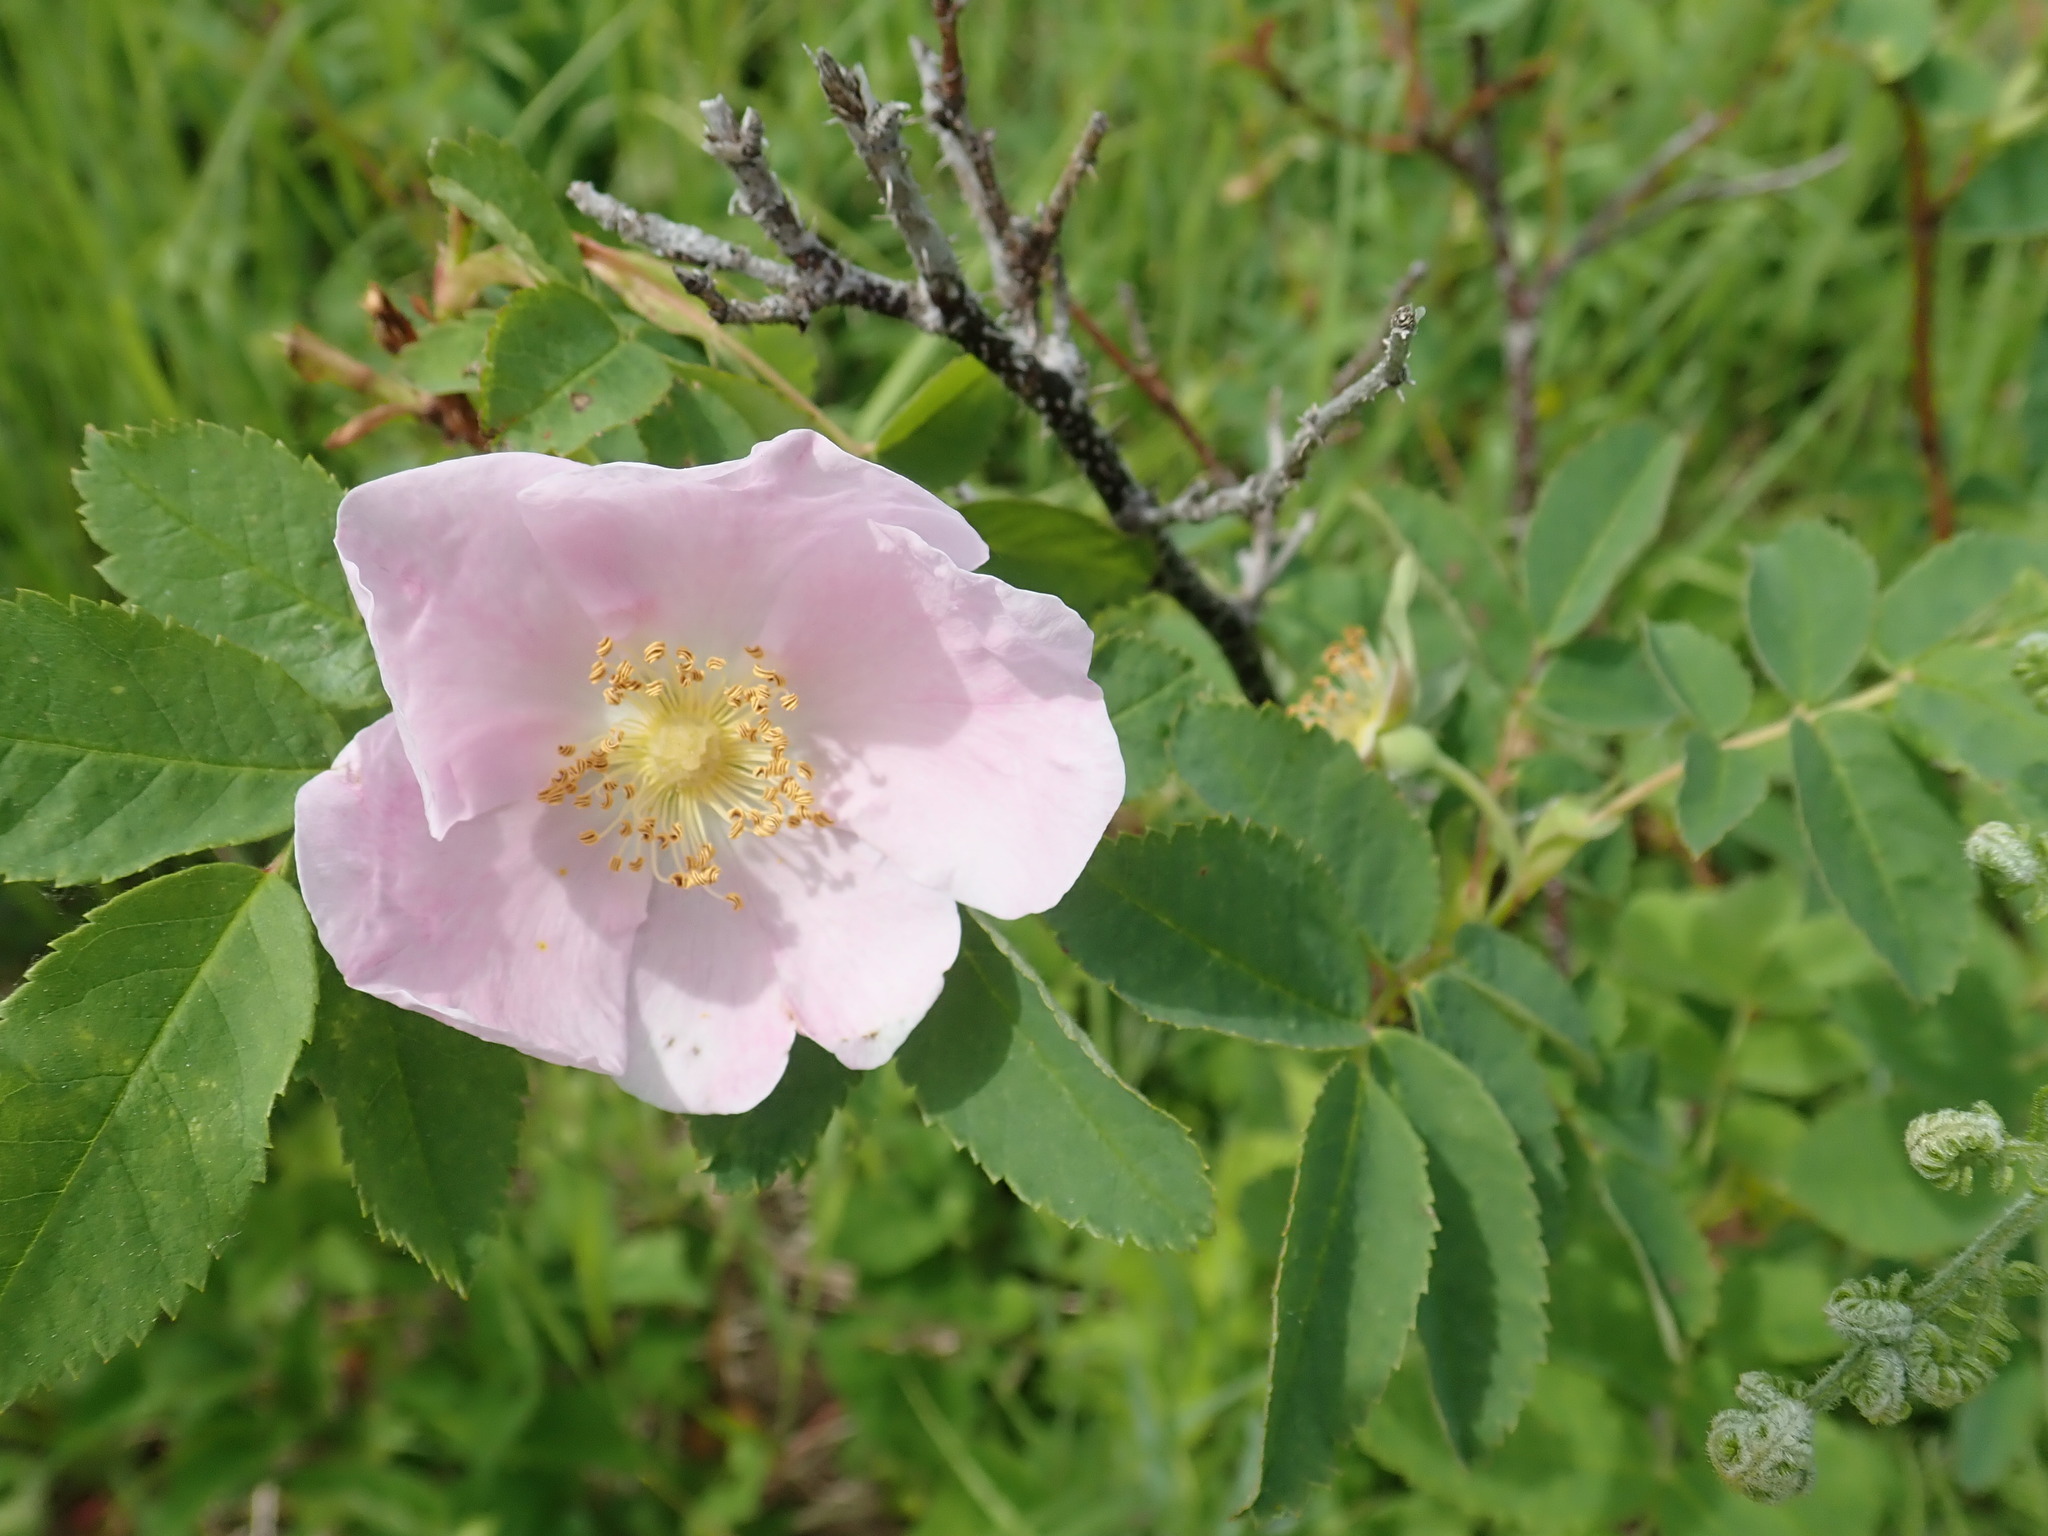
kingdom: Plantae
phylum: Tracheophyta
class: Magnoliopsida
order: Rosales
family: Rosaceae
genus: Rosa
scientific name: Rosa acicularis
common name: Prickly rose
